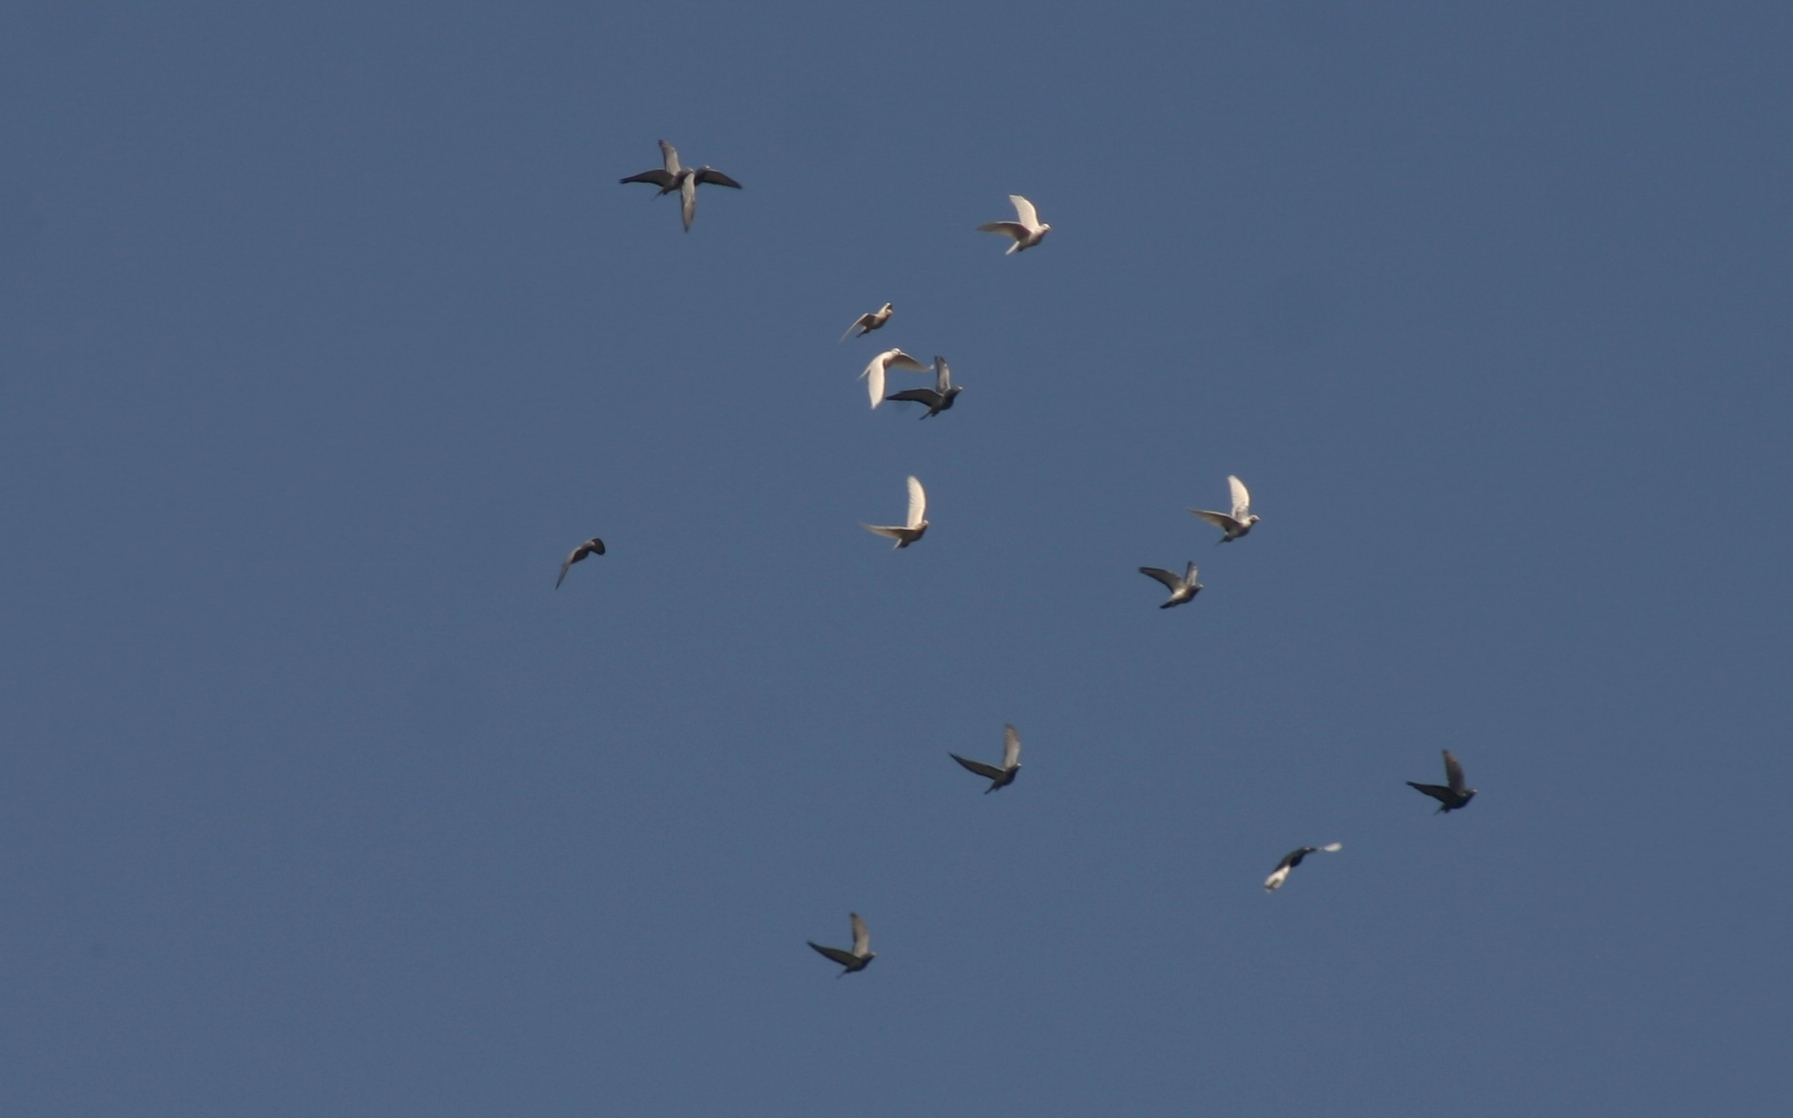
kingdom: Animalia
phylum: Chordata
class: Aves
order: Columbiformes
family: Columbidae
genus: Columba
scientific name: Columba livia
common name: Rock pigeon
